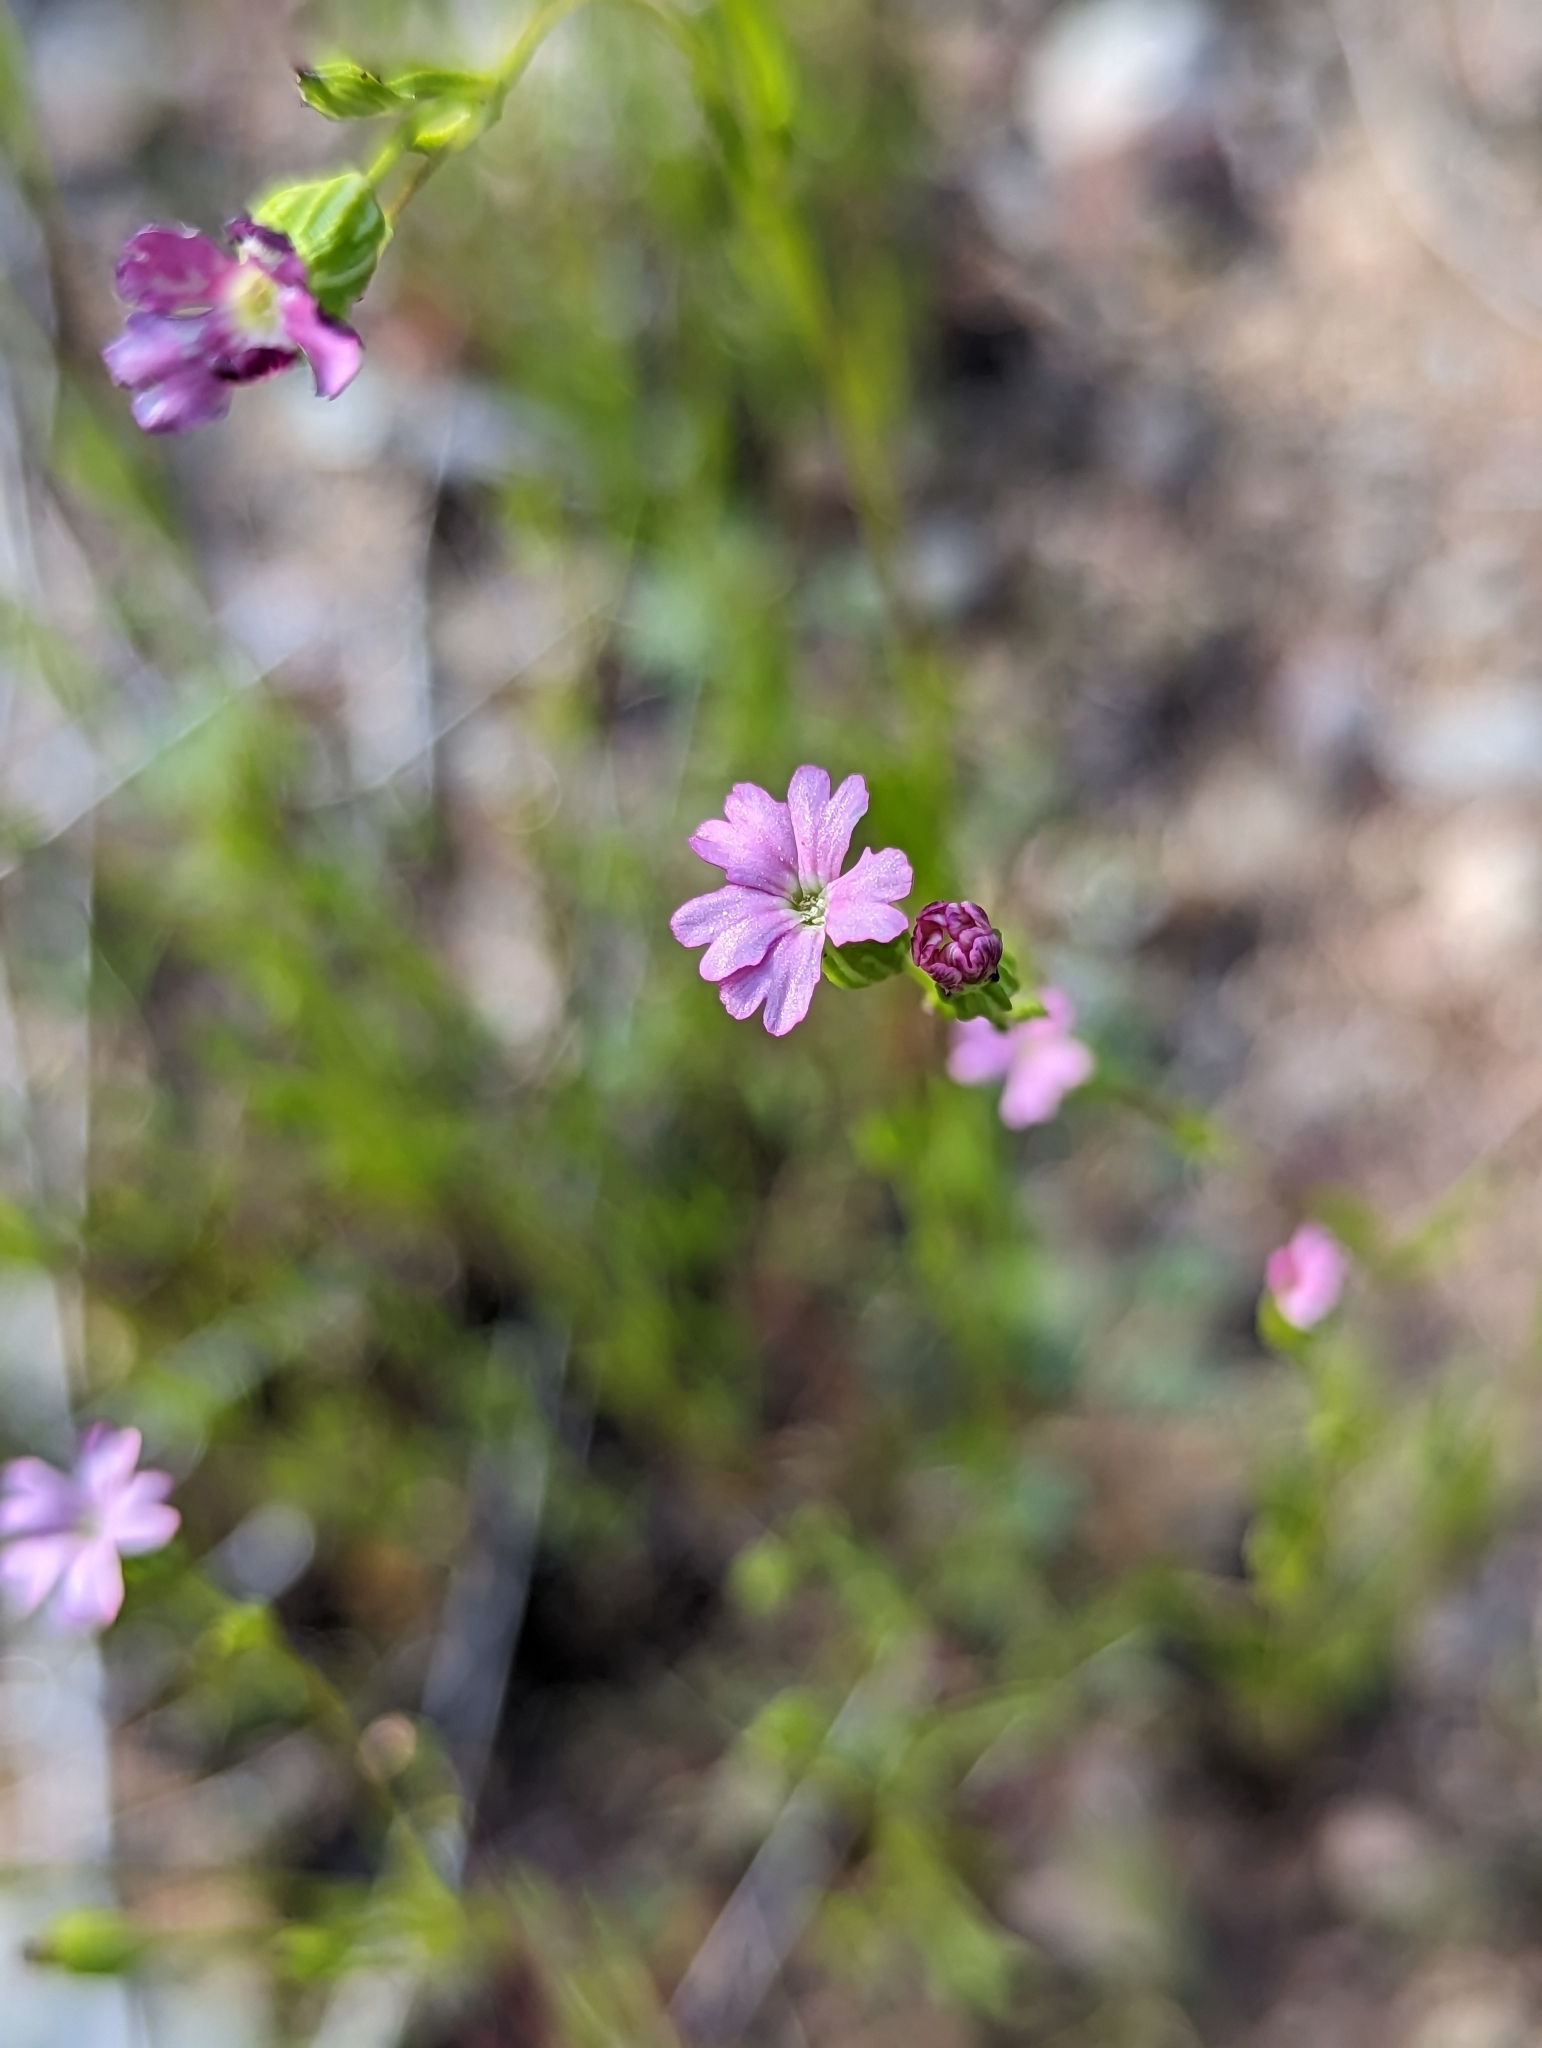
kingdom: Plantae
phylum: Tracheophyta
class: Magnoliopsida
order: Caryophyllales
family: Caryophyllaceae
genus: Silene
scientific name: Silene antirrhina
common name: Sleepy catchfly
